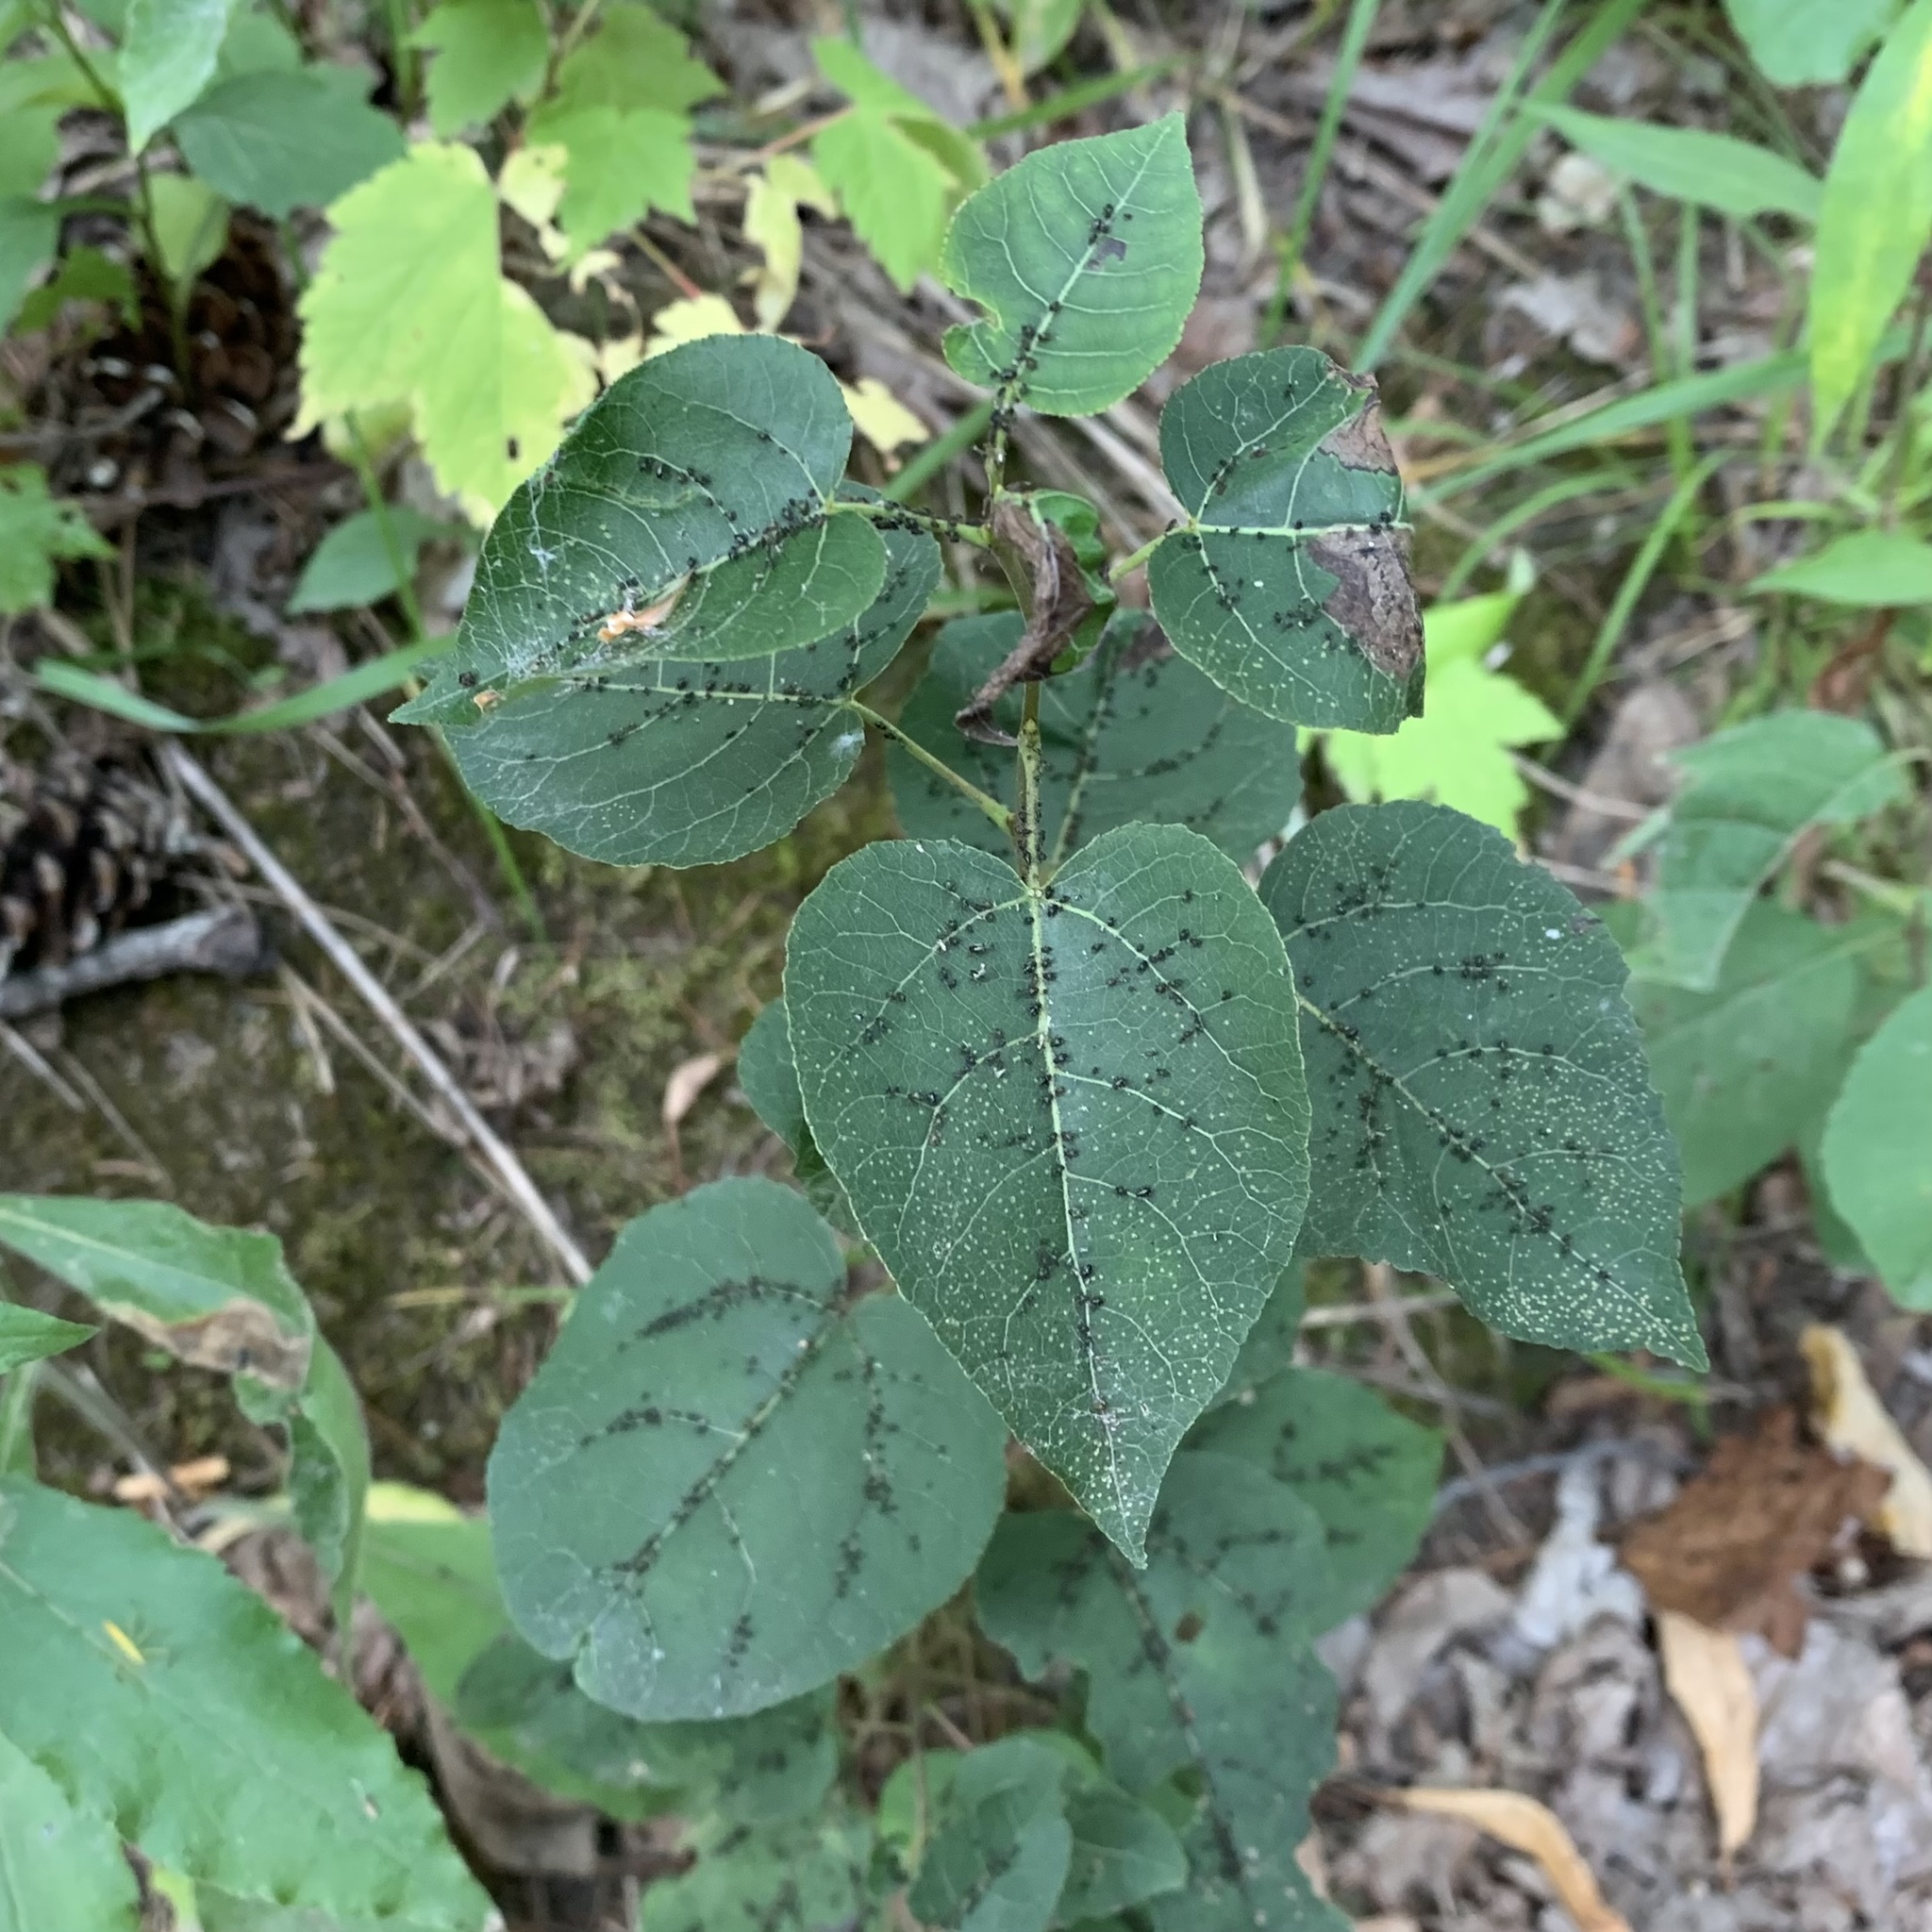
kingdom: Plantae
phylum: Tracheophyta
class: Magnoliopsida
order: Malpighiales
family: Salicaceae
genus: Populus
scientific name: Populus tremuloides
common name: Quaking aspen
